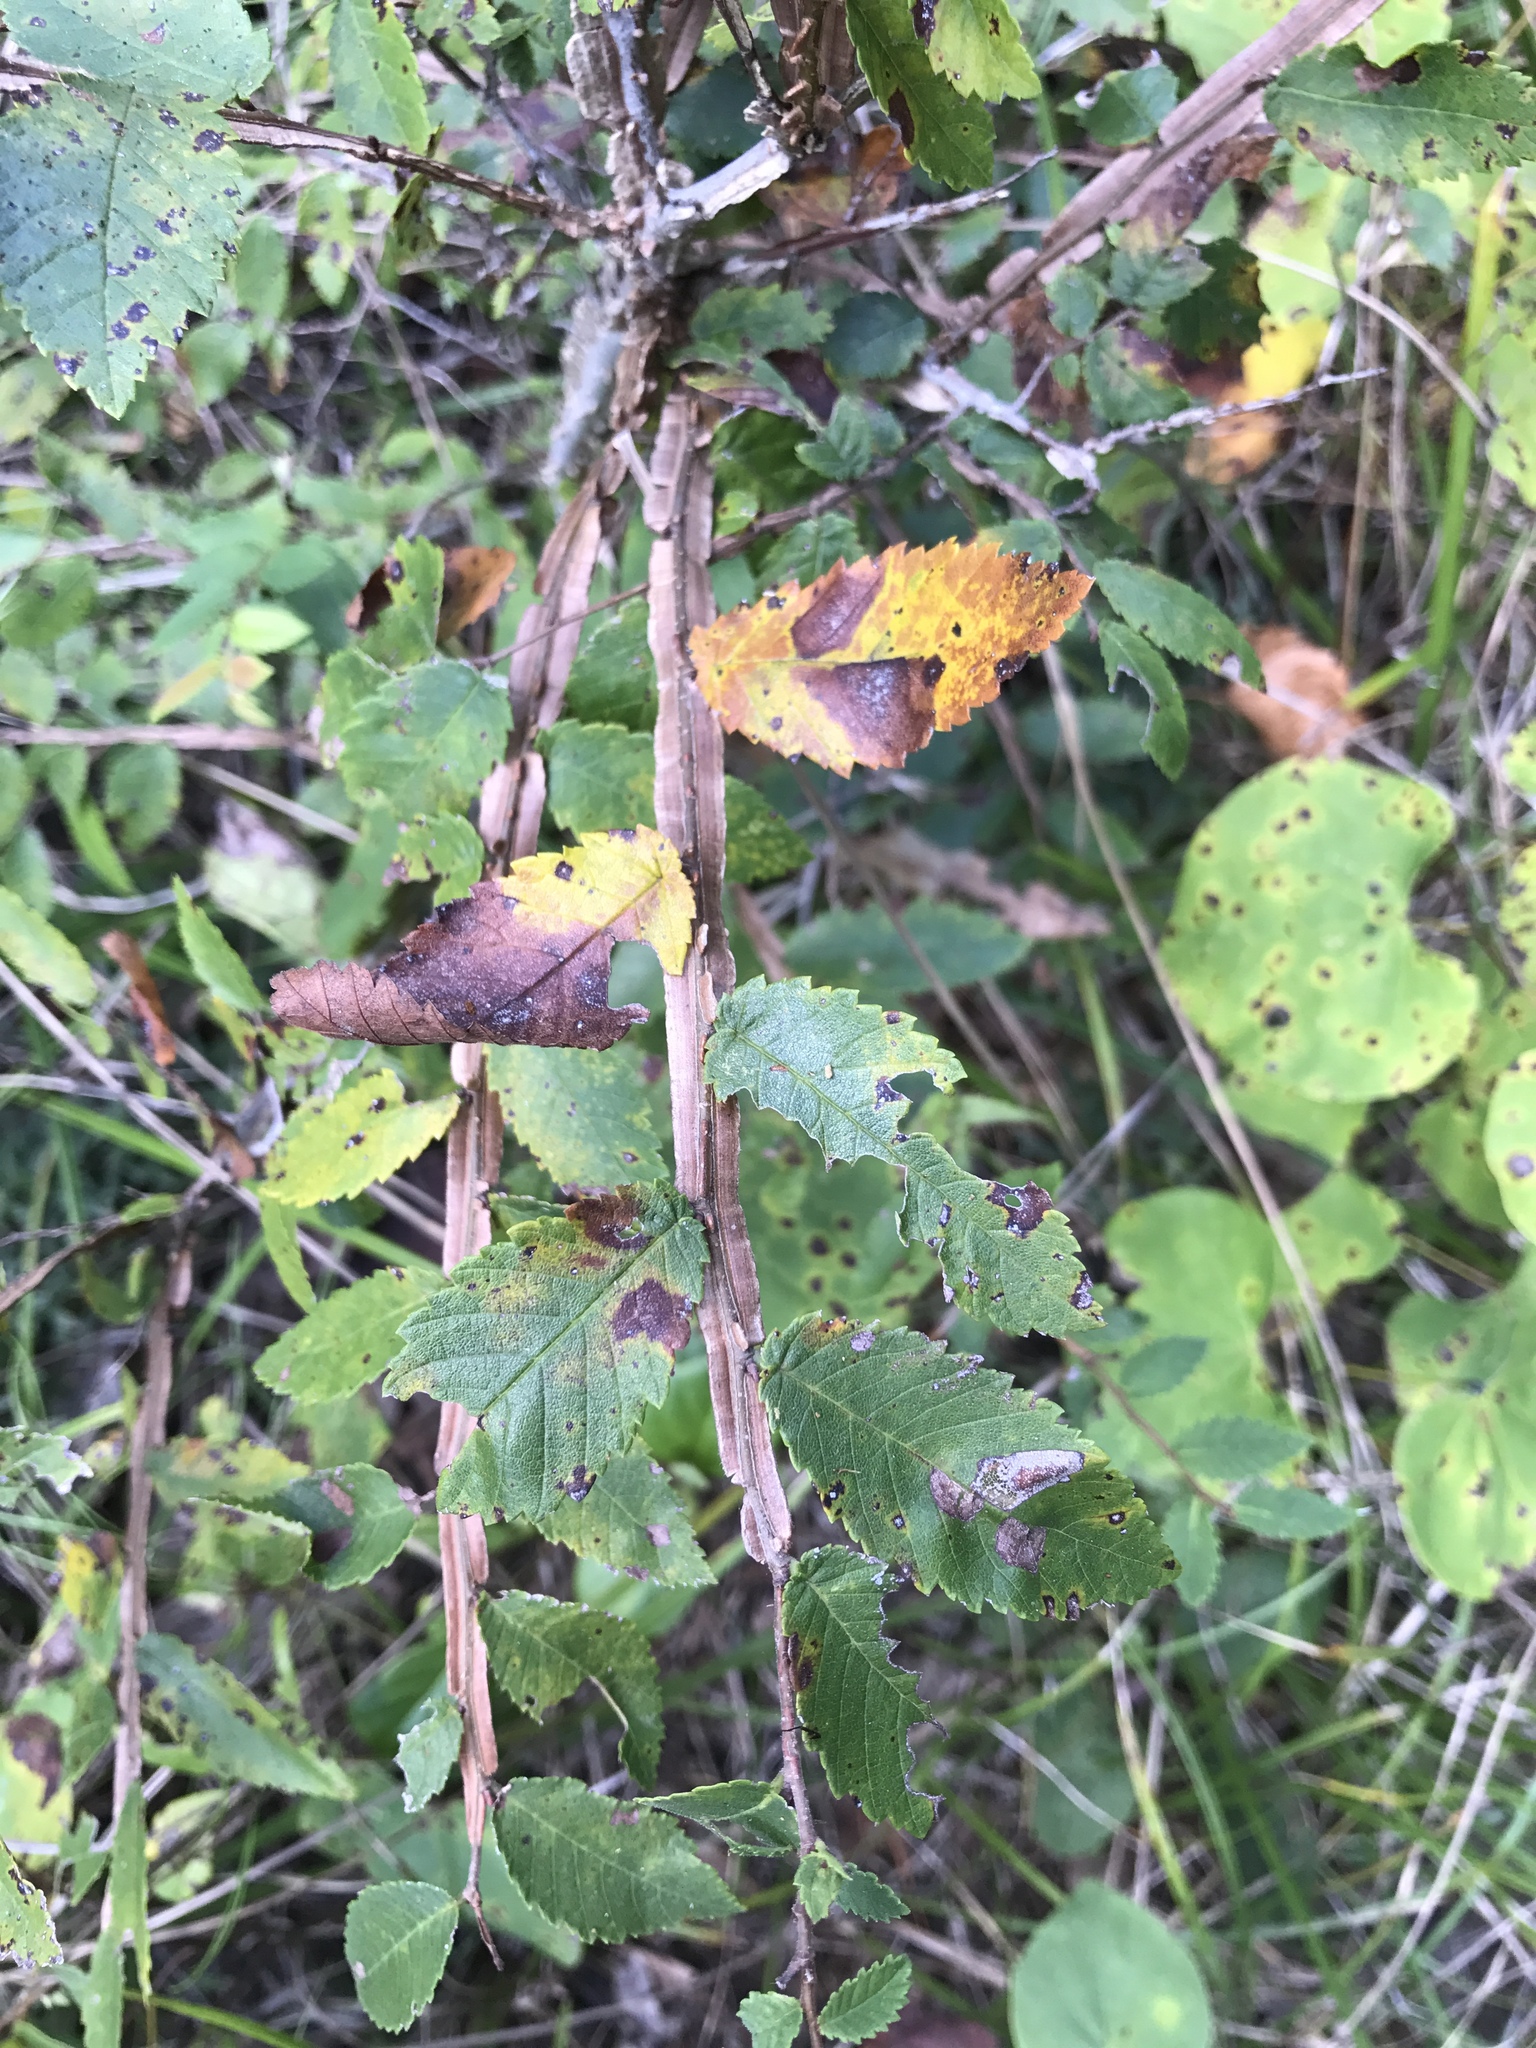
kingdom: Plantae
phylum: Tracheophyta
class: Magnoliopsida
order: Rosales
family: Ulmaceae
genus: Ulmus
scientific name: Ulmus alata
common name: Winged elm
